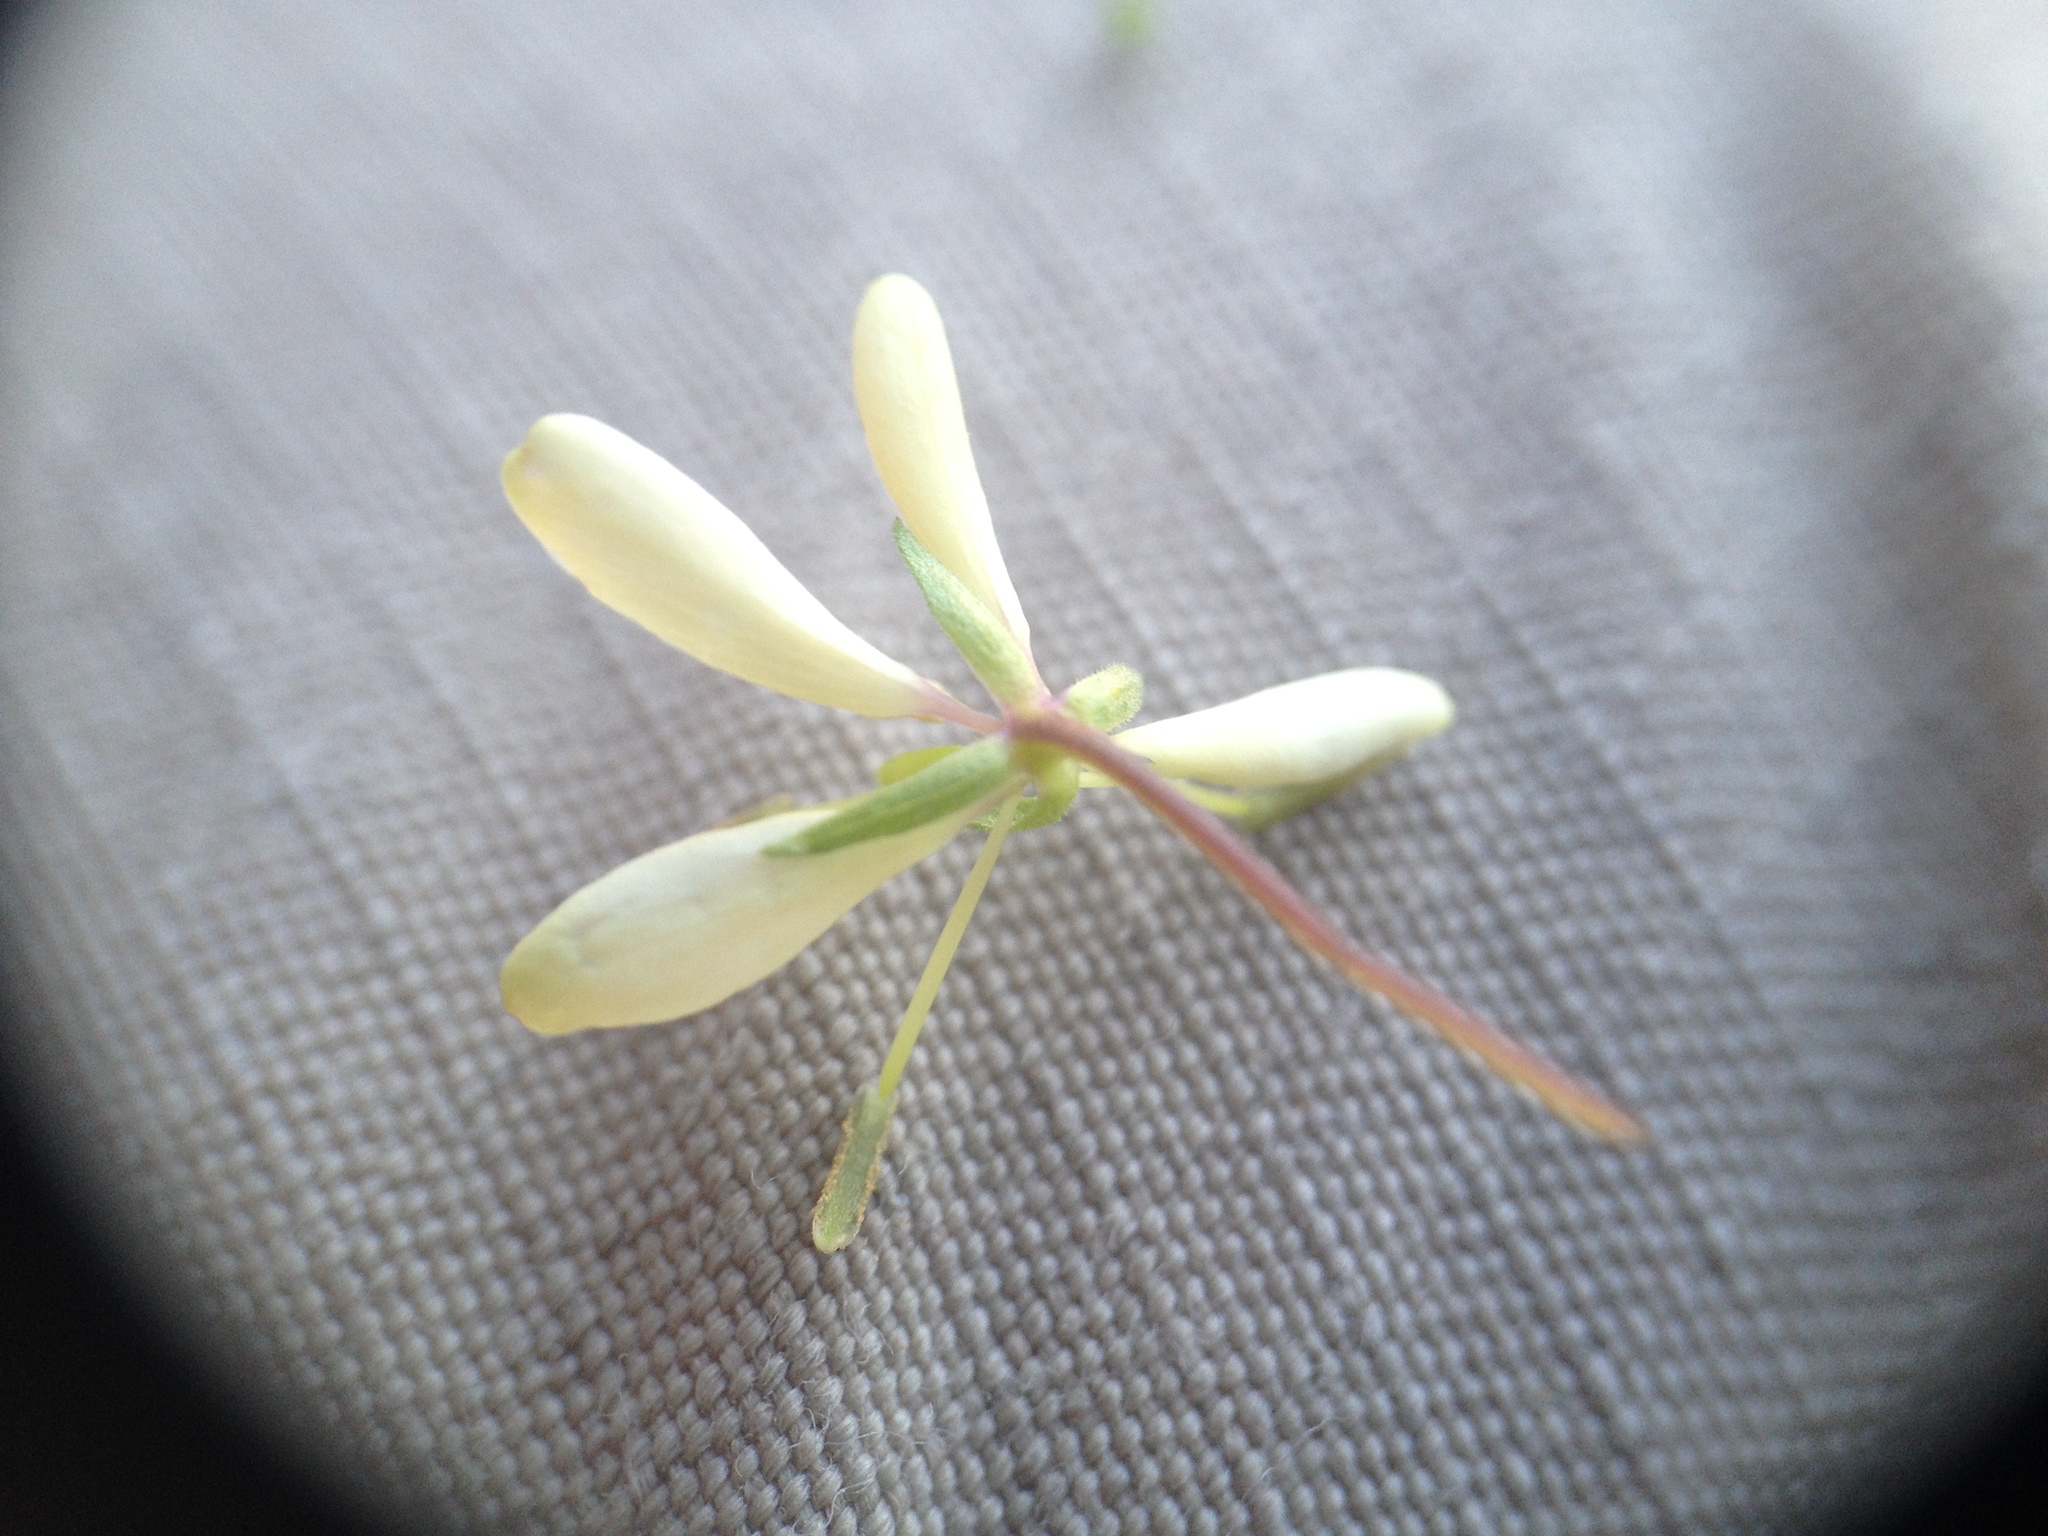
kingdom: Plantae
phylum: Tracheophyta
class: Magnoliopsida
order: Brassicales
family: Cleomaceae
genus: Tarenaya
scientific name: Tarenaya aculeata
